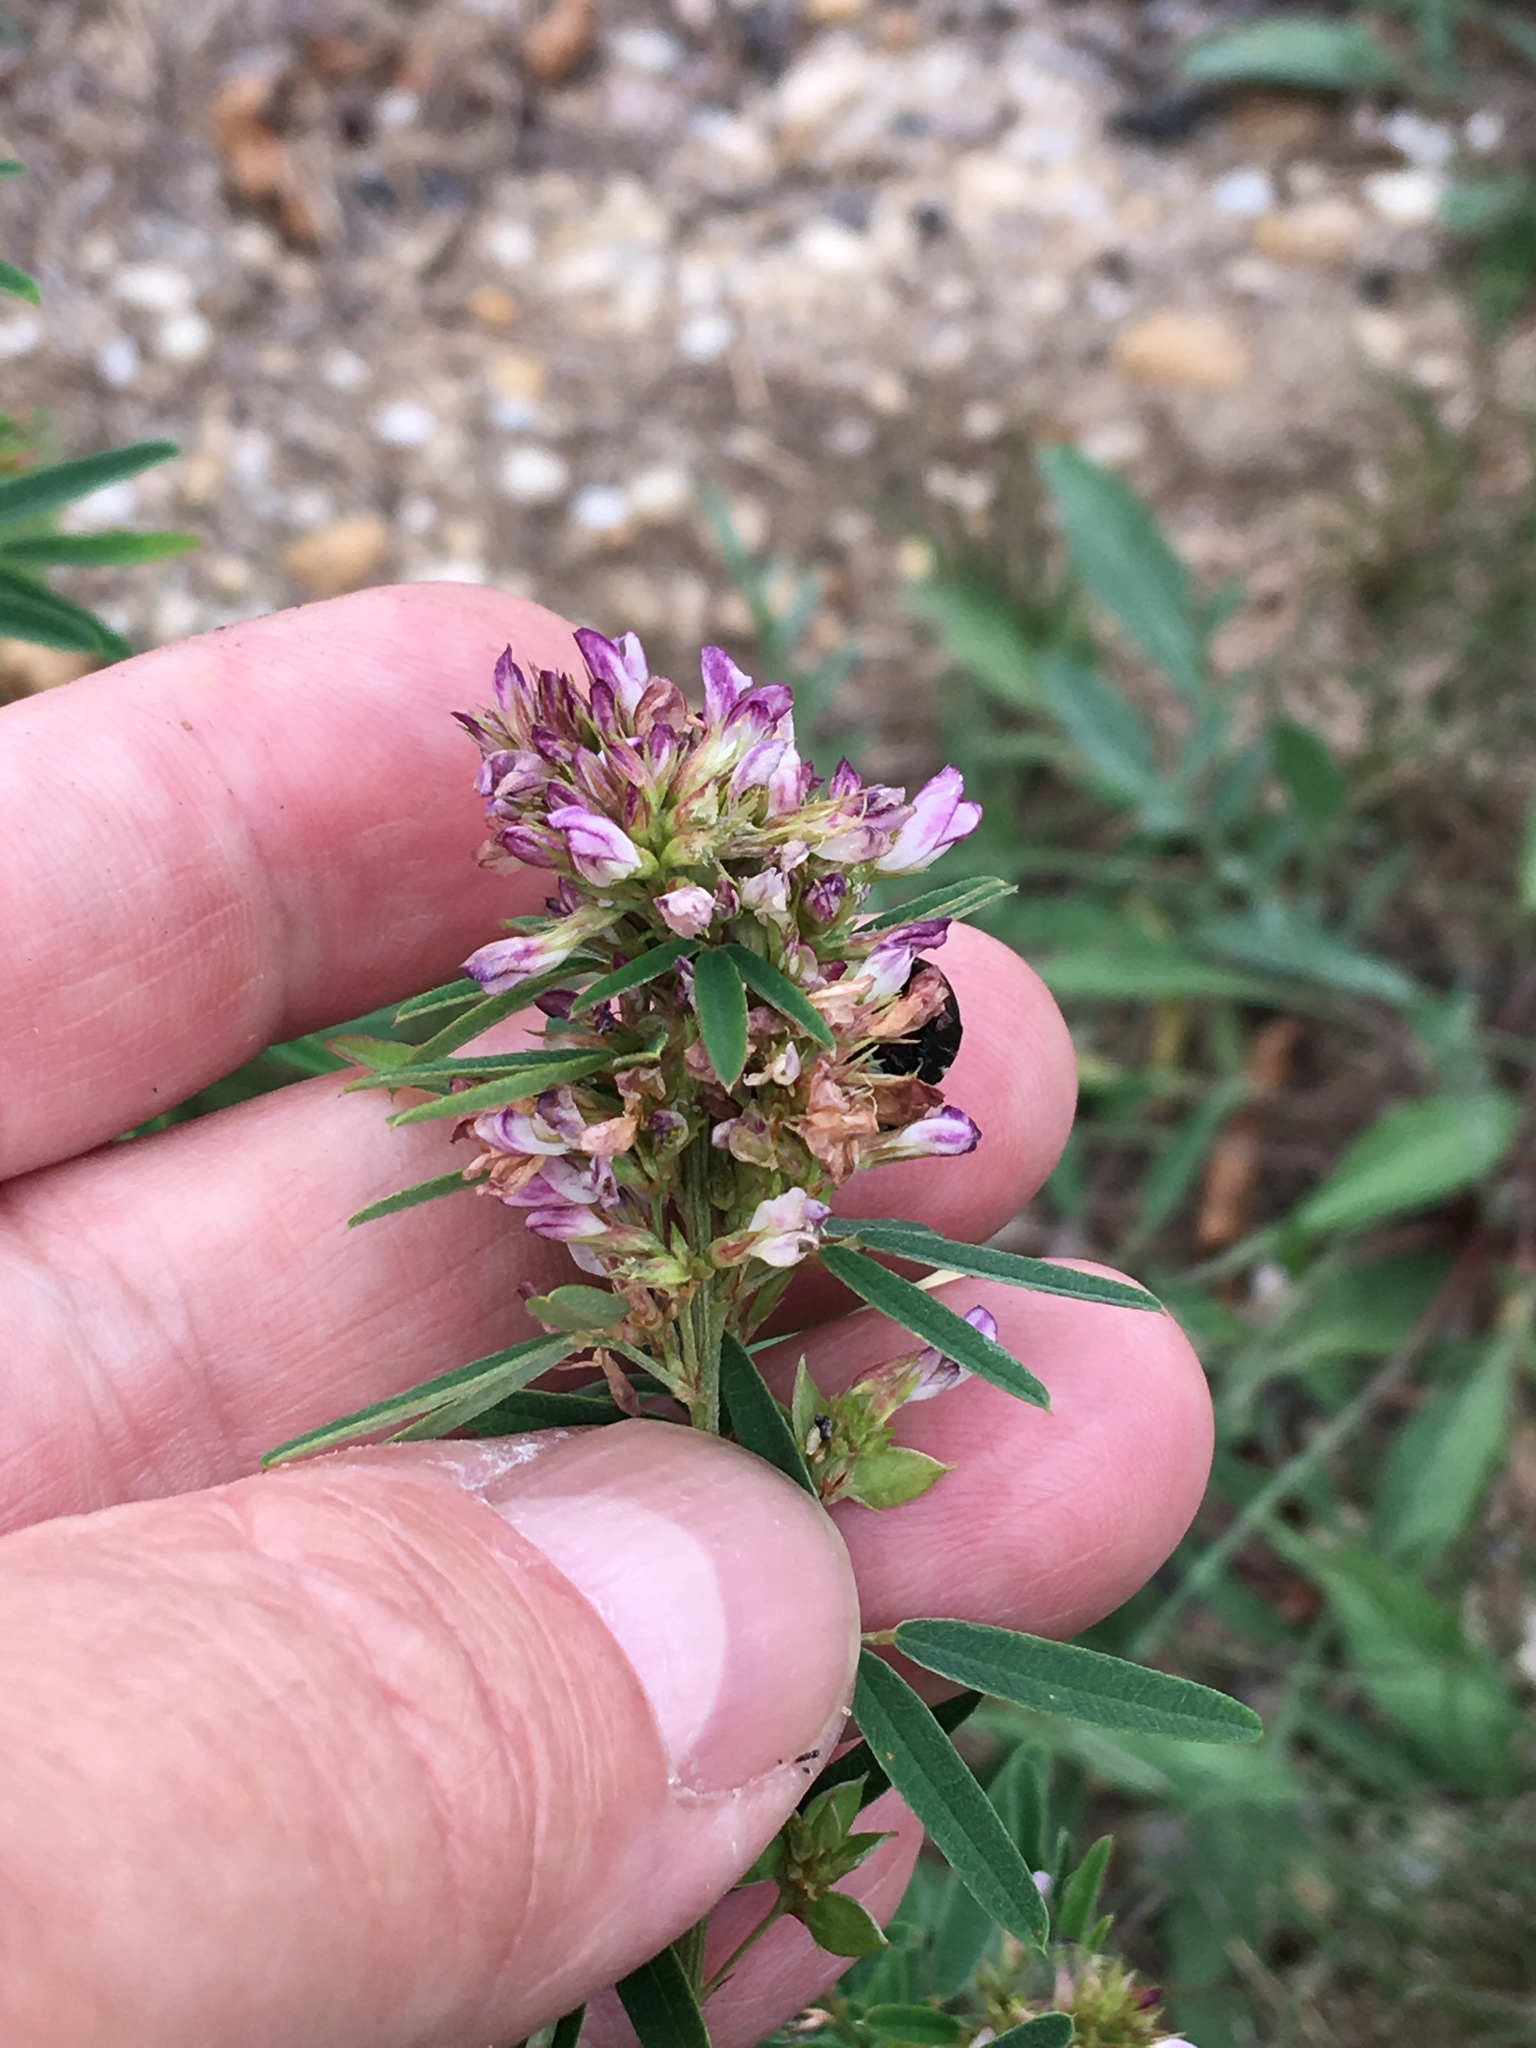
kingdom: Plantae
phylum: Tracheophyta
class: Magnoliopsida
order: Fabales
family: Fabaceae
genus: Lespedeza
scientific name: Lespedeza virginica
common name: Slender bush-clover
